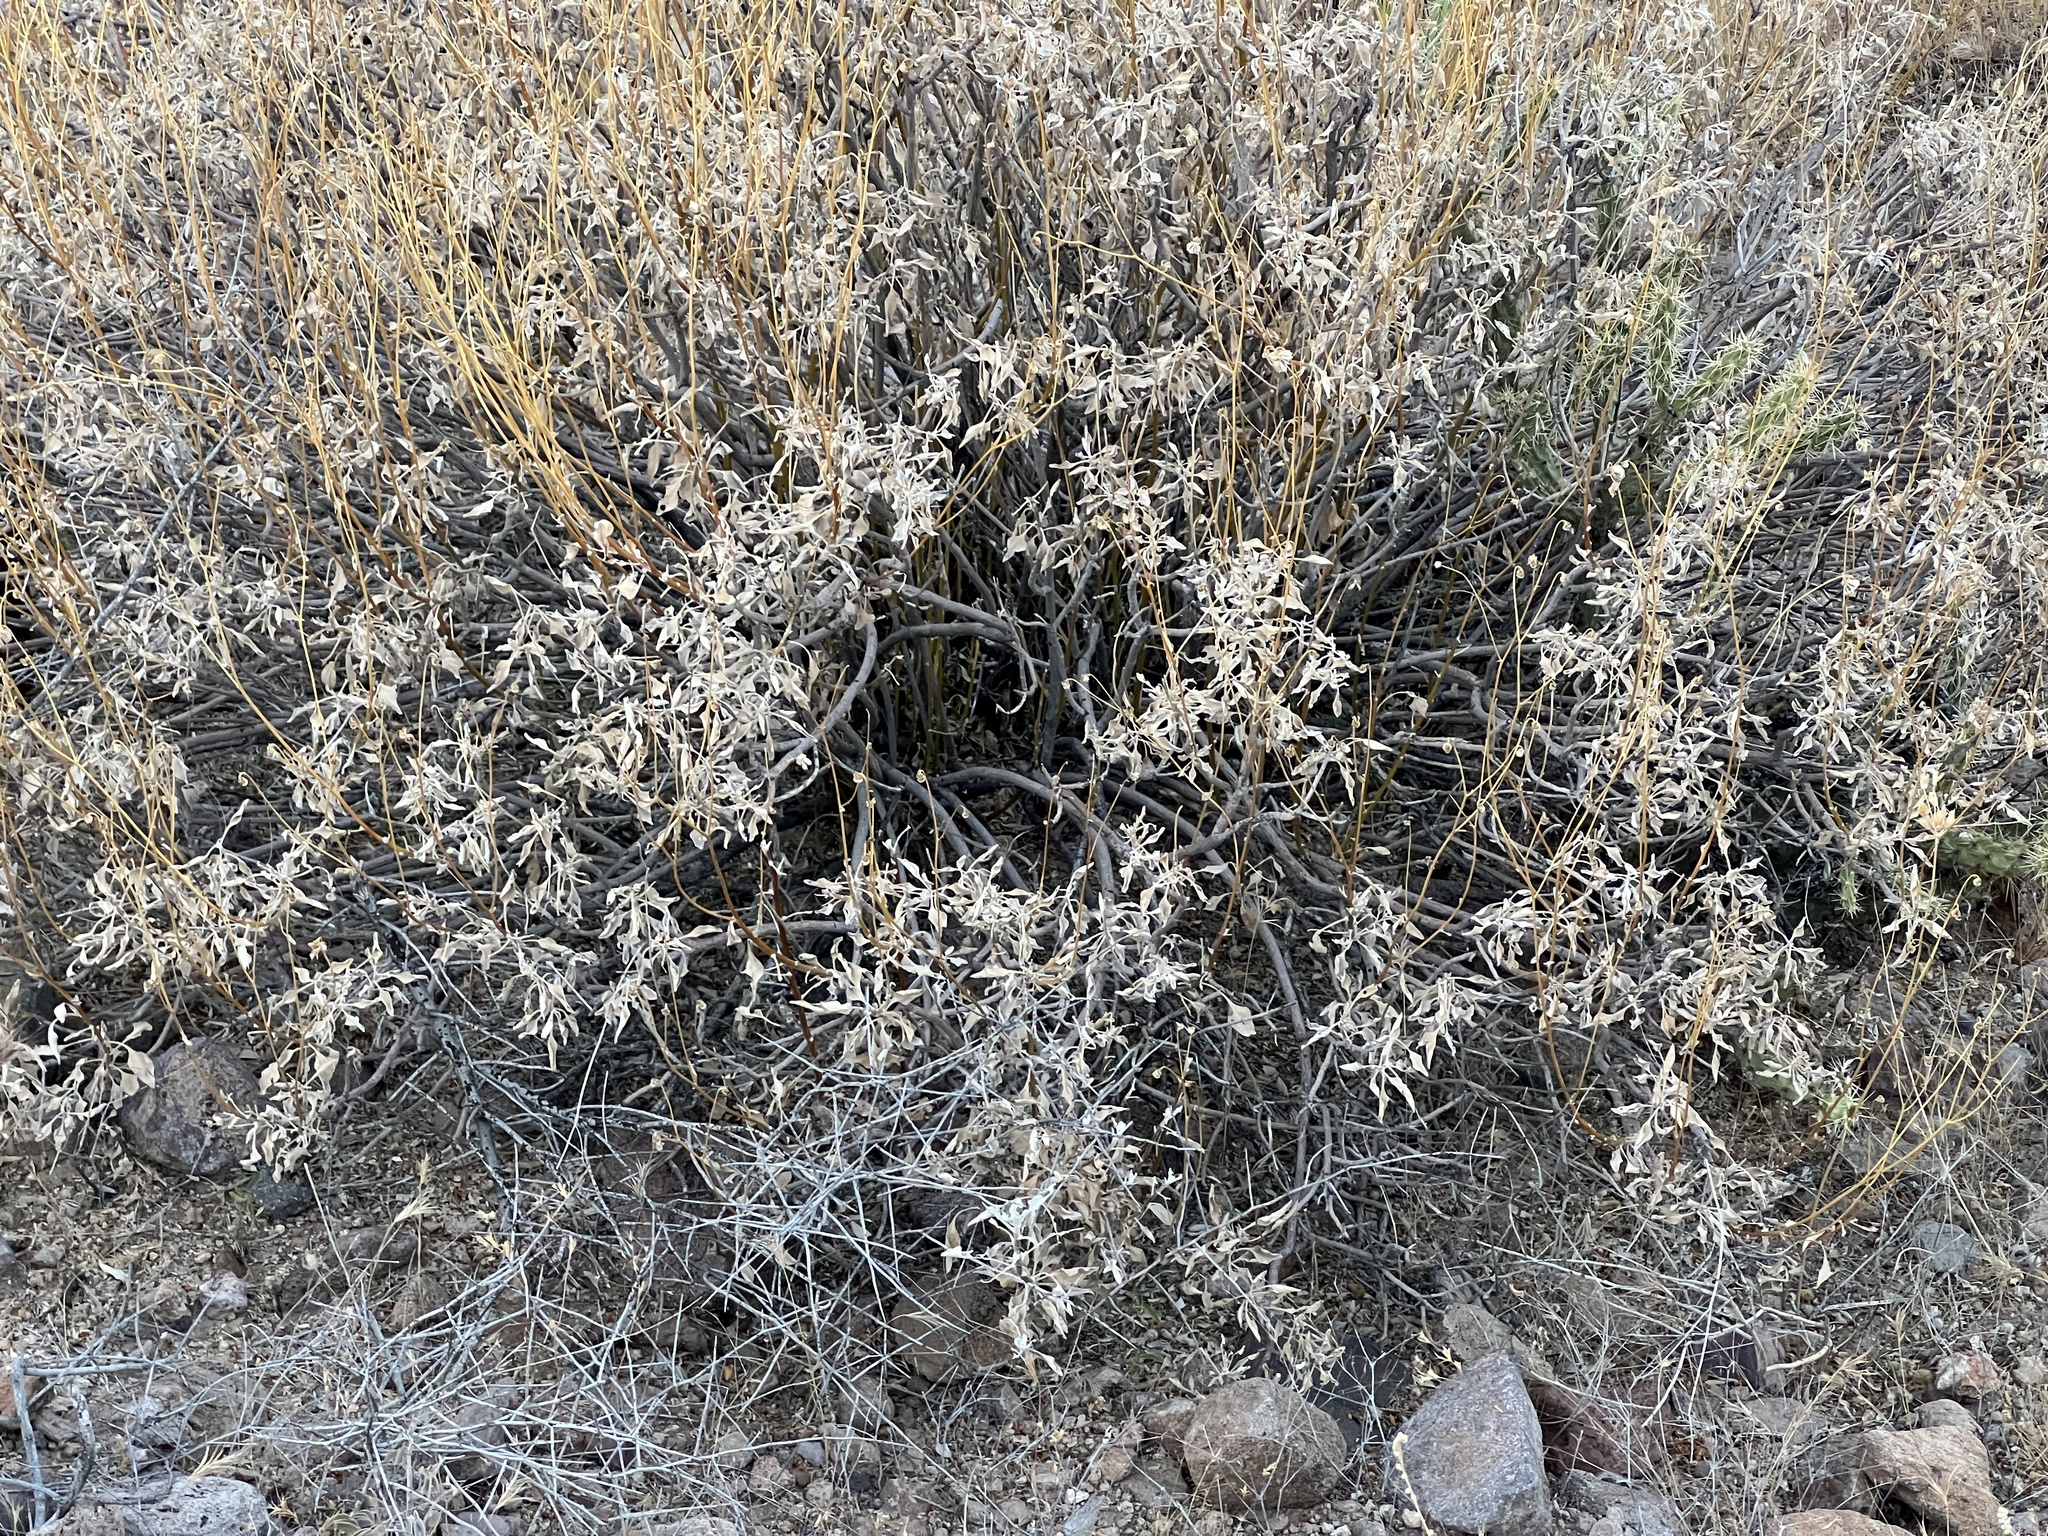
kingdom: Plantae
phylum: Tracheophyta
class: Magnoliopsida
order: Asterales
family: Asteraceae
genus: Encelia
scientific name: Encelia farinosa
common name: Brittlebush
